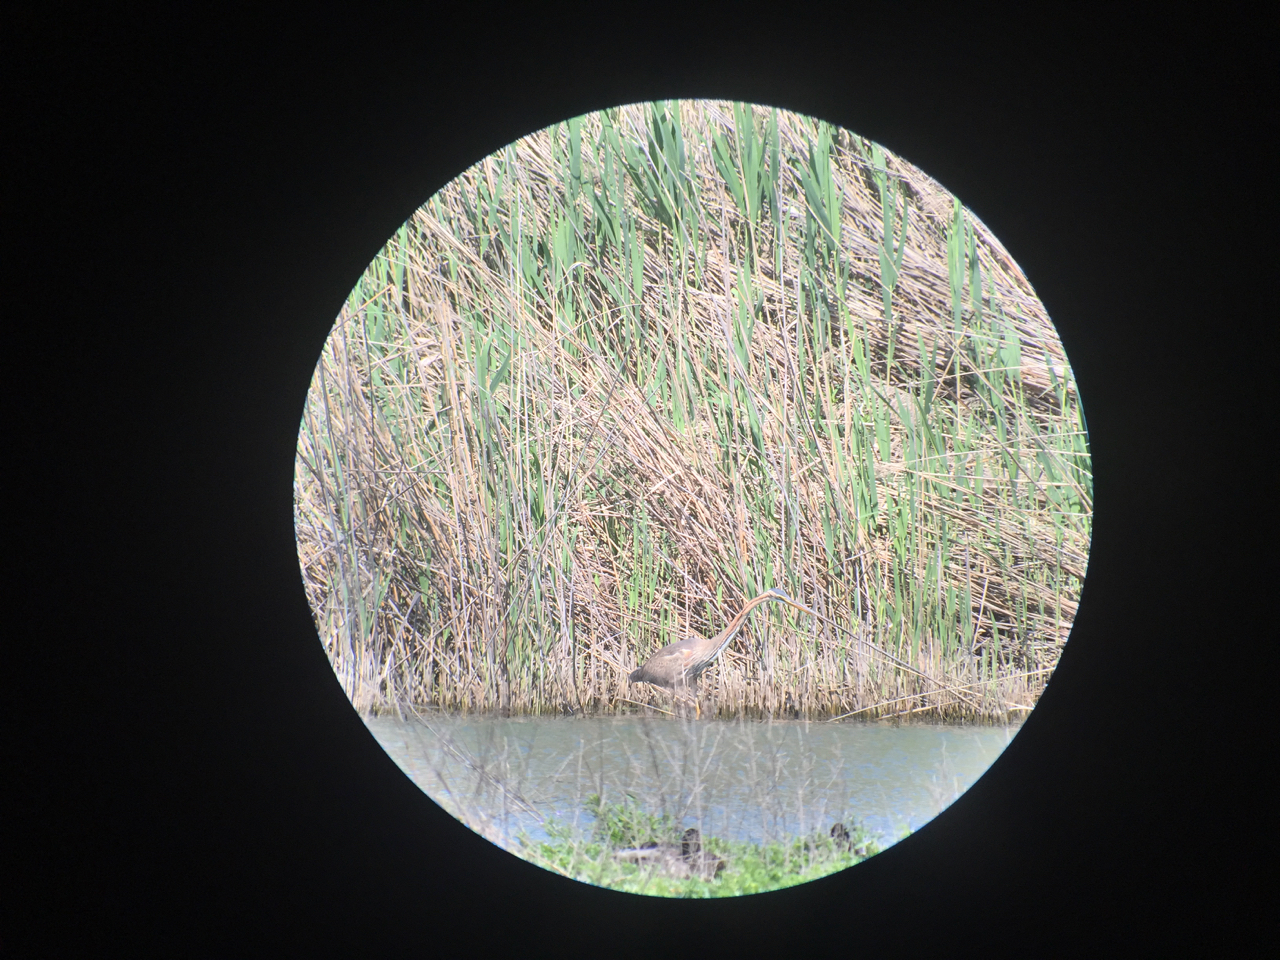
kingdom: Animalia
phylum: Chordata
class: Aves
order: Pelecaniformes
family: Ardeidae
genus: Ardea
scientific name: Ardea purpurea
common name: Purple heron
